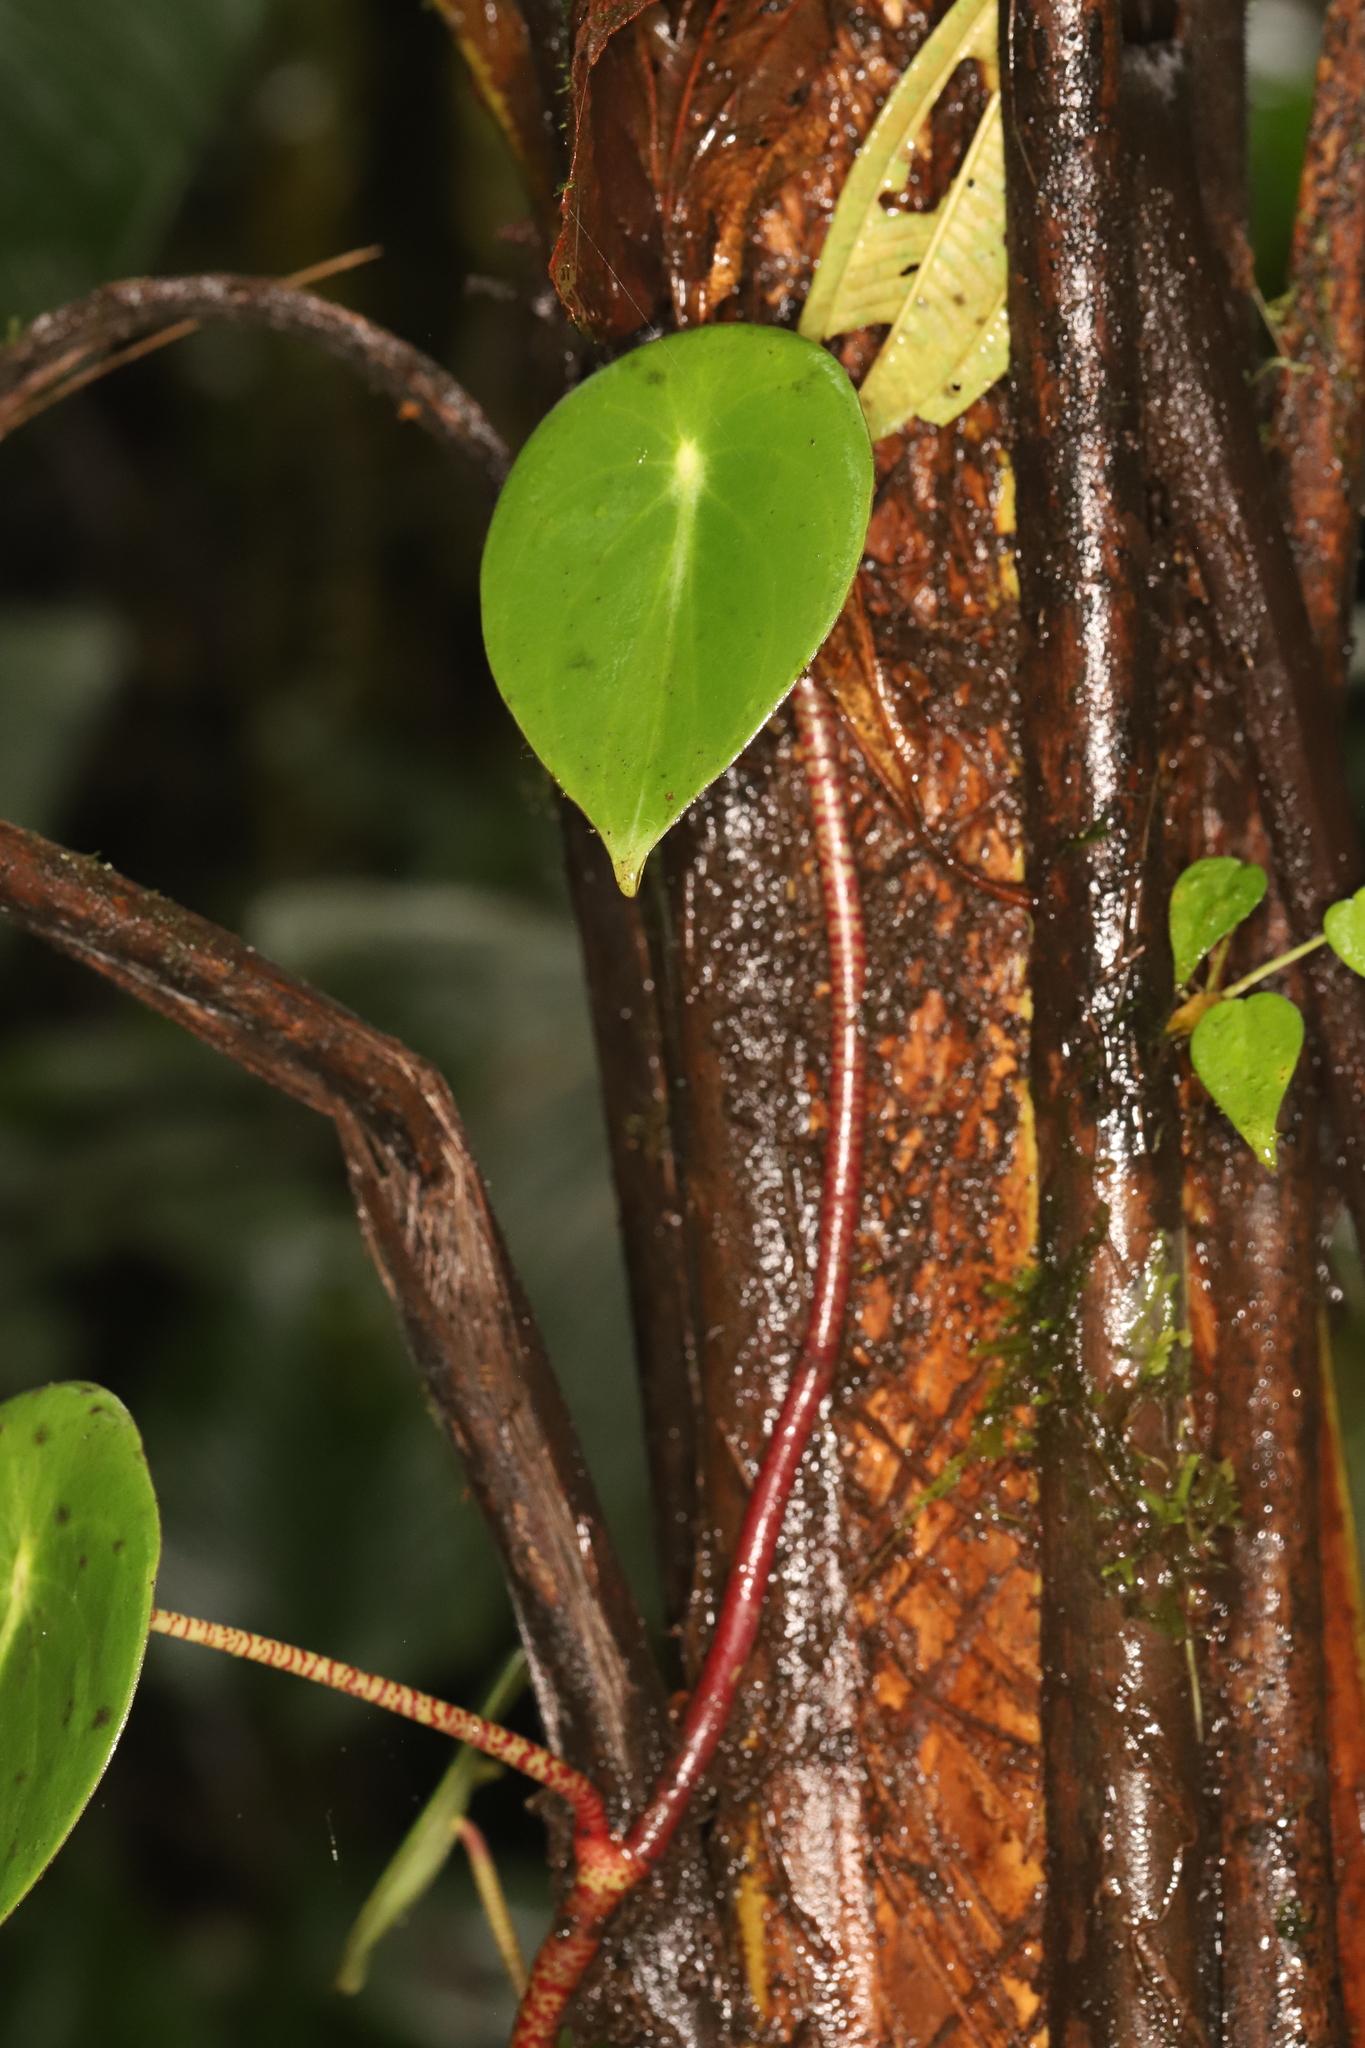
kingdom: Plantae
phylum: Tracheophyta
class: Magnoliopsida
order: Piperales
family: Piperaceae
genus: Peperomia
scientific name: Peperomia choroniana
